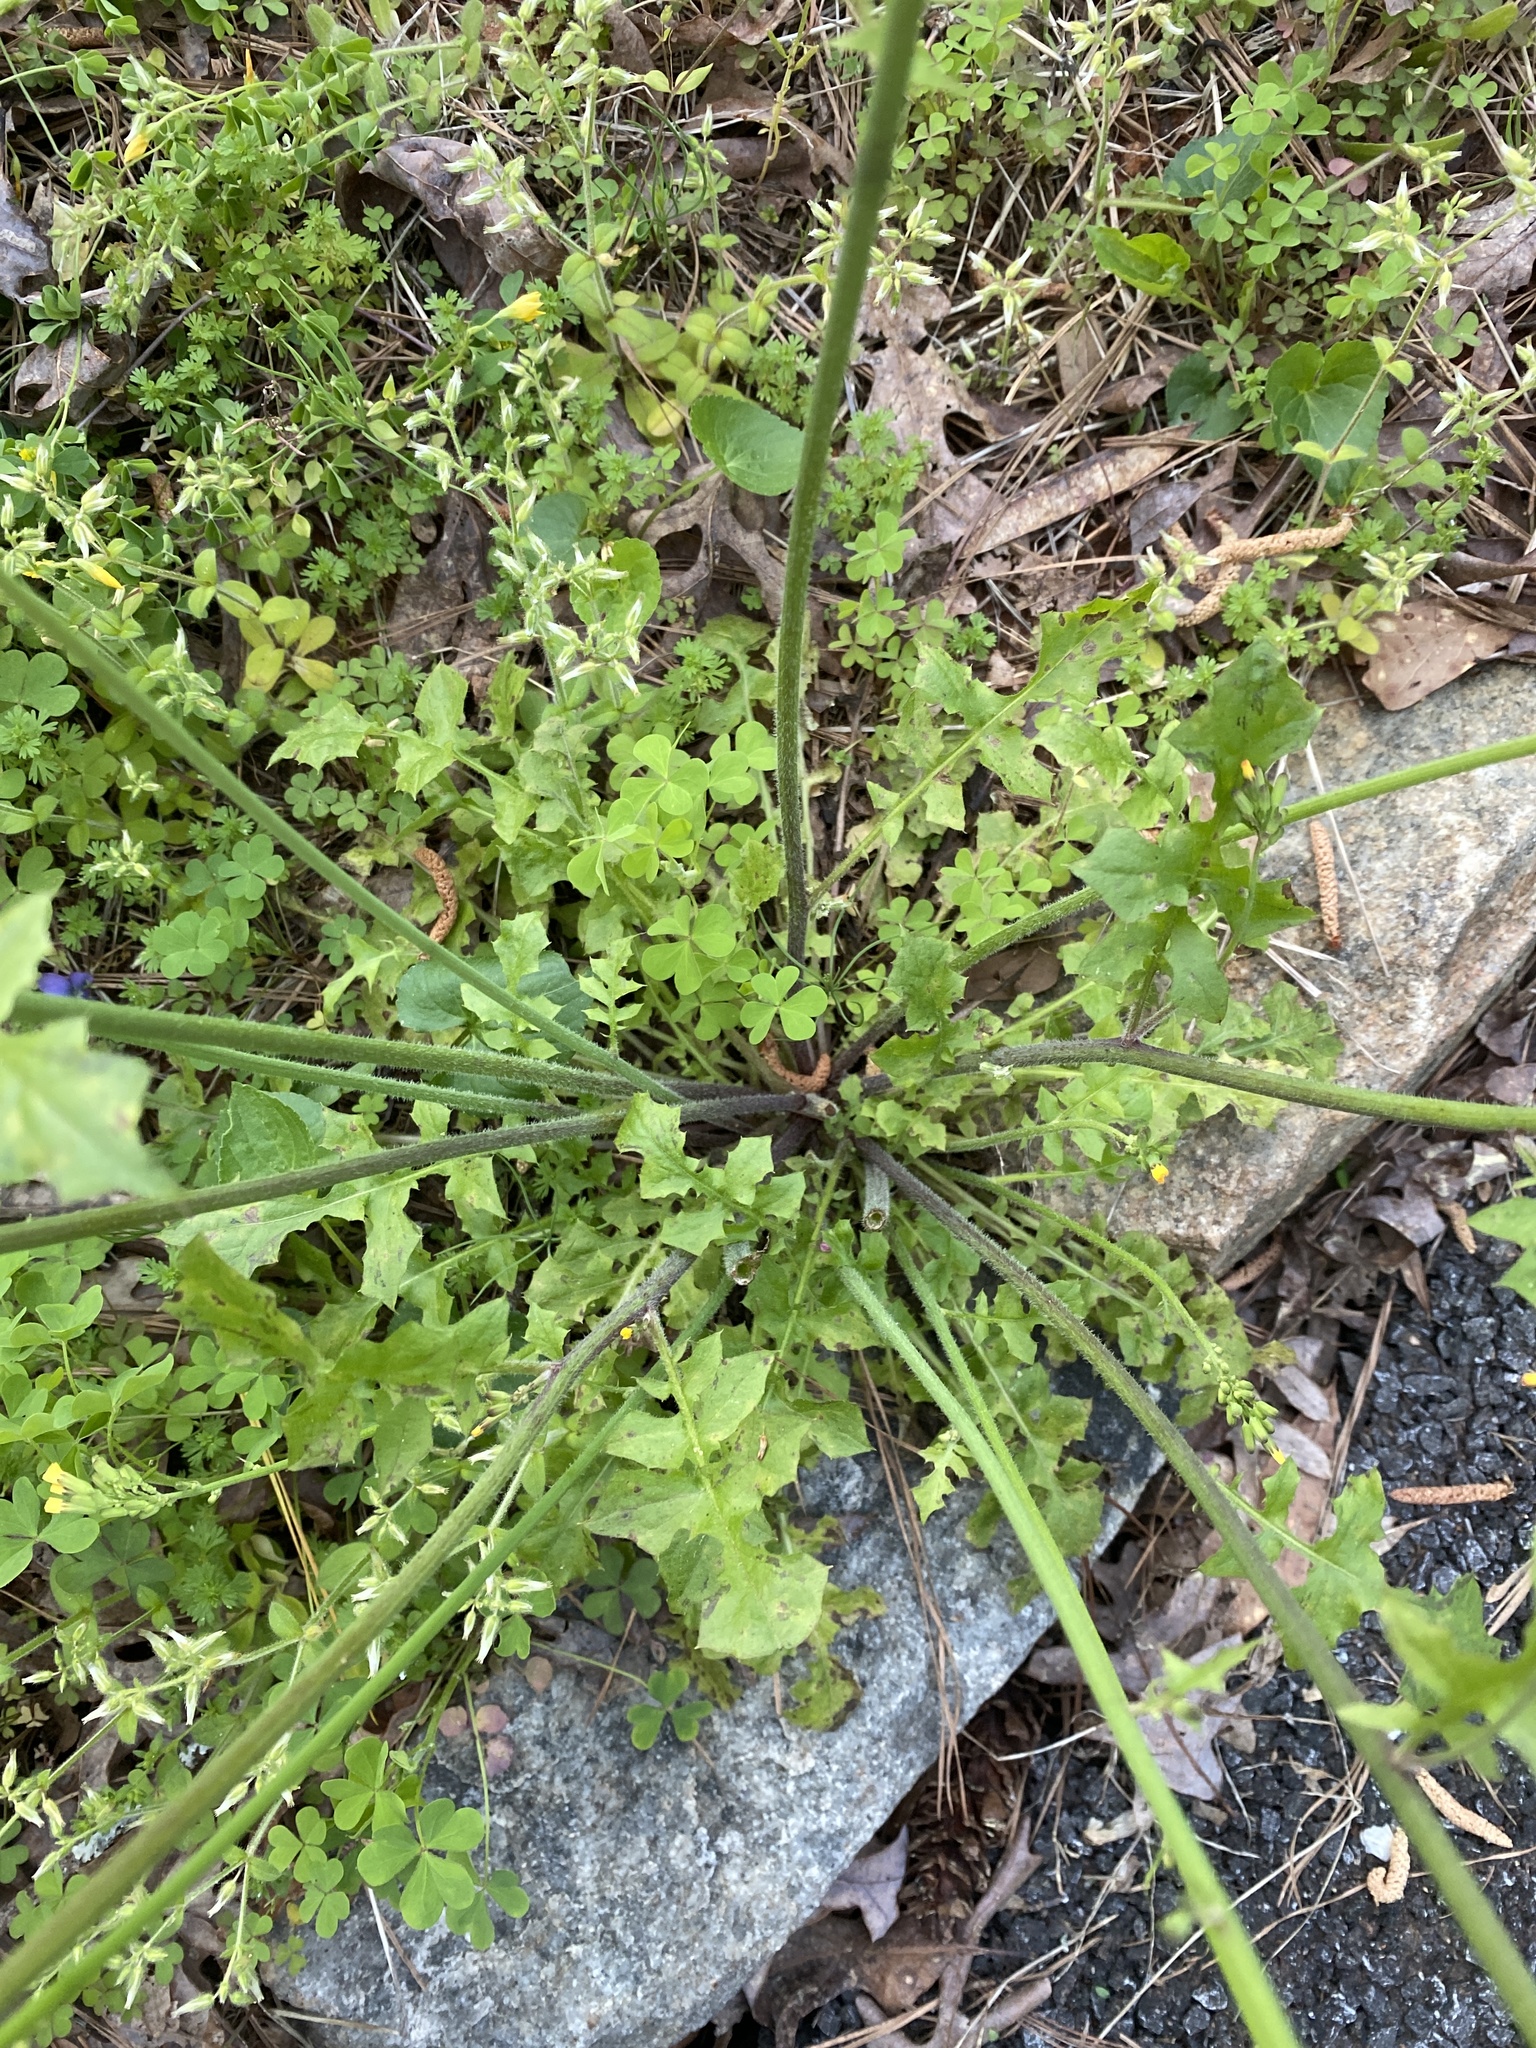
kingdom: Plantae
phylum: Tracheophyta
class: Magnoliopsida
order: Asterales
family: Asteraceae
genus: Youngia
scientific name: Youngia japonica
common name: Oriental false hawksbeard
